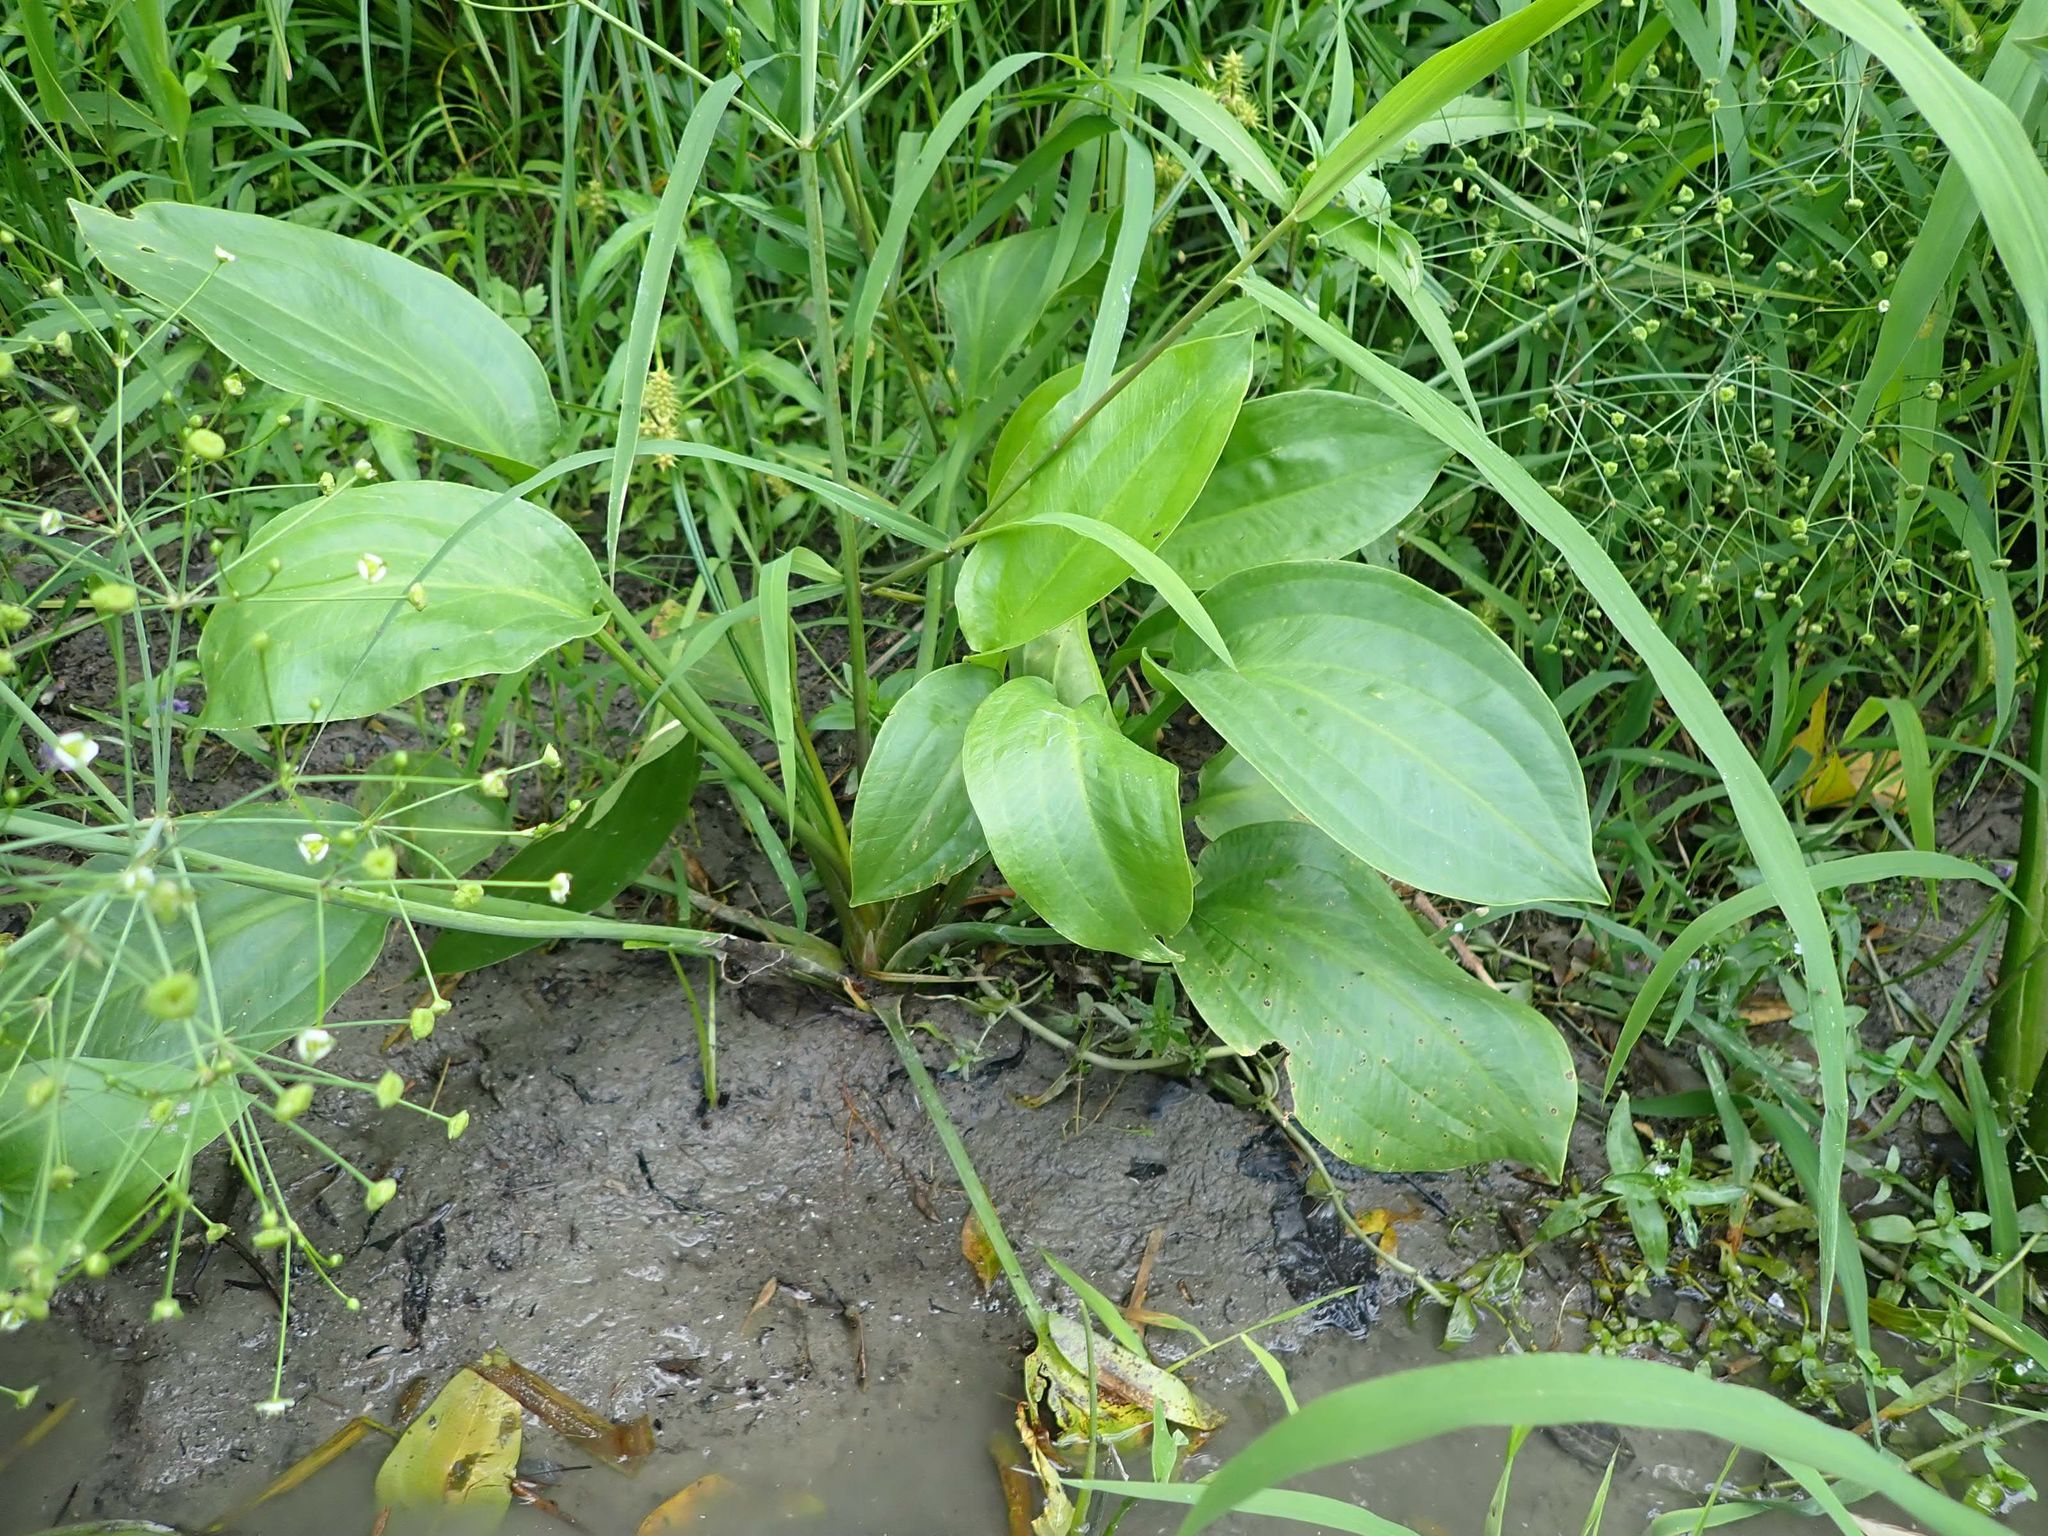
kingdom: Plantae
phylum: Tracheophyta
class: Liliopsida
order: Alismatales
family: Alismataceae
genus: Alisma
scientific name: Alisma triviale
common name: Northern water-plantain
